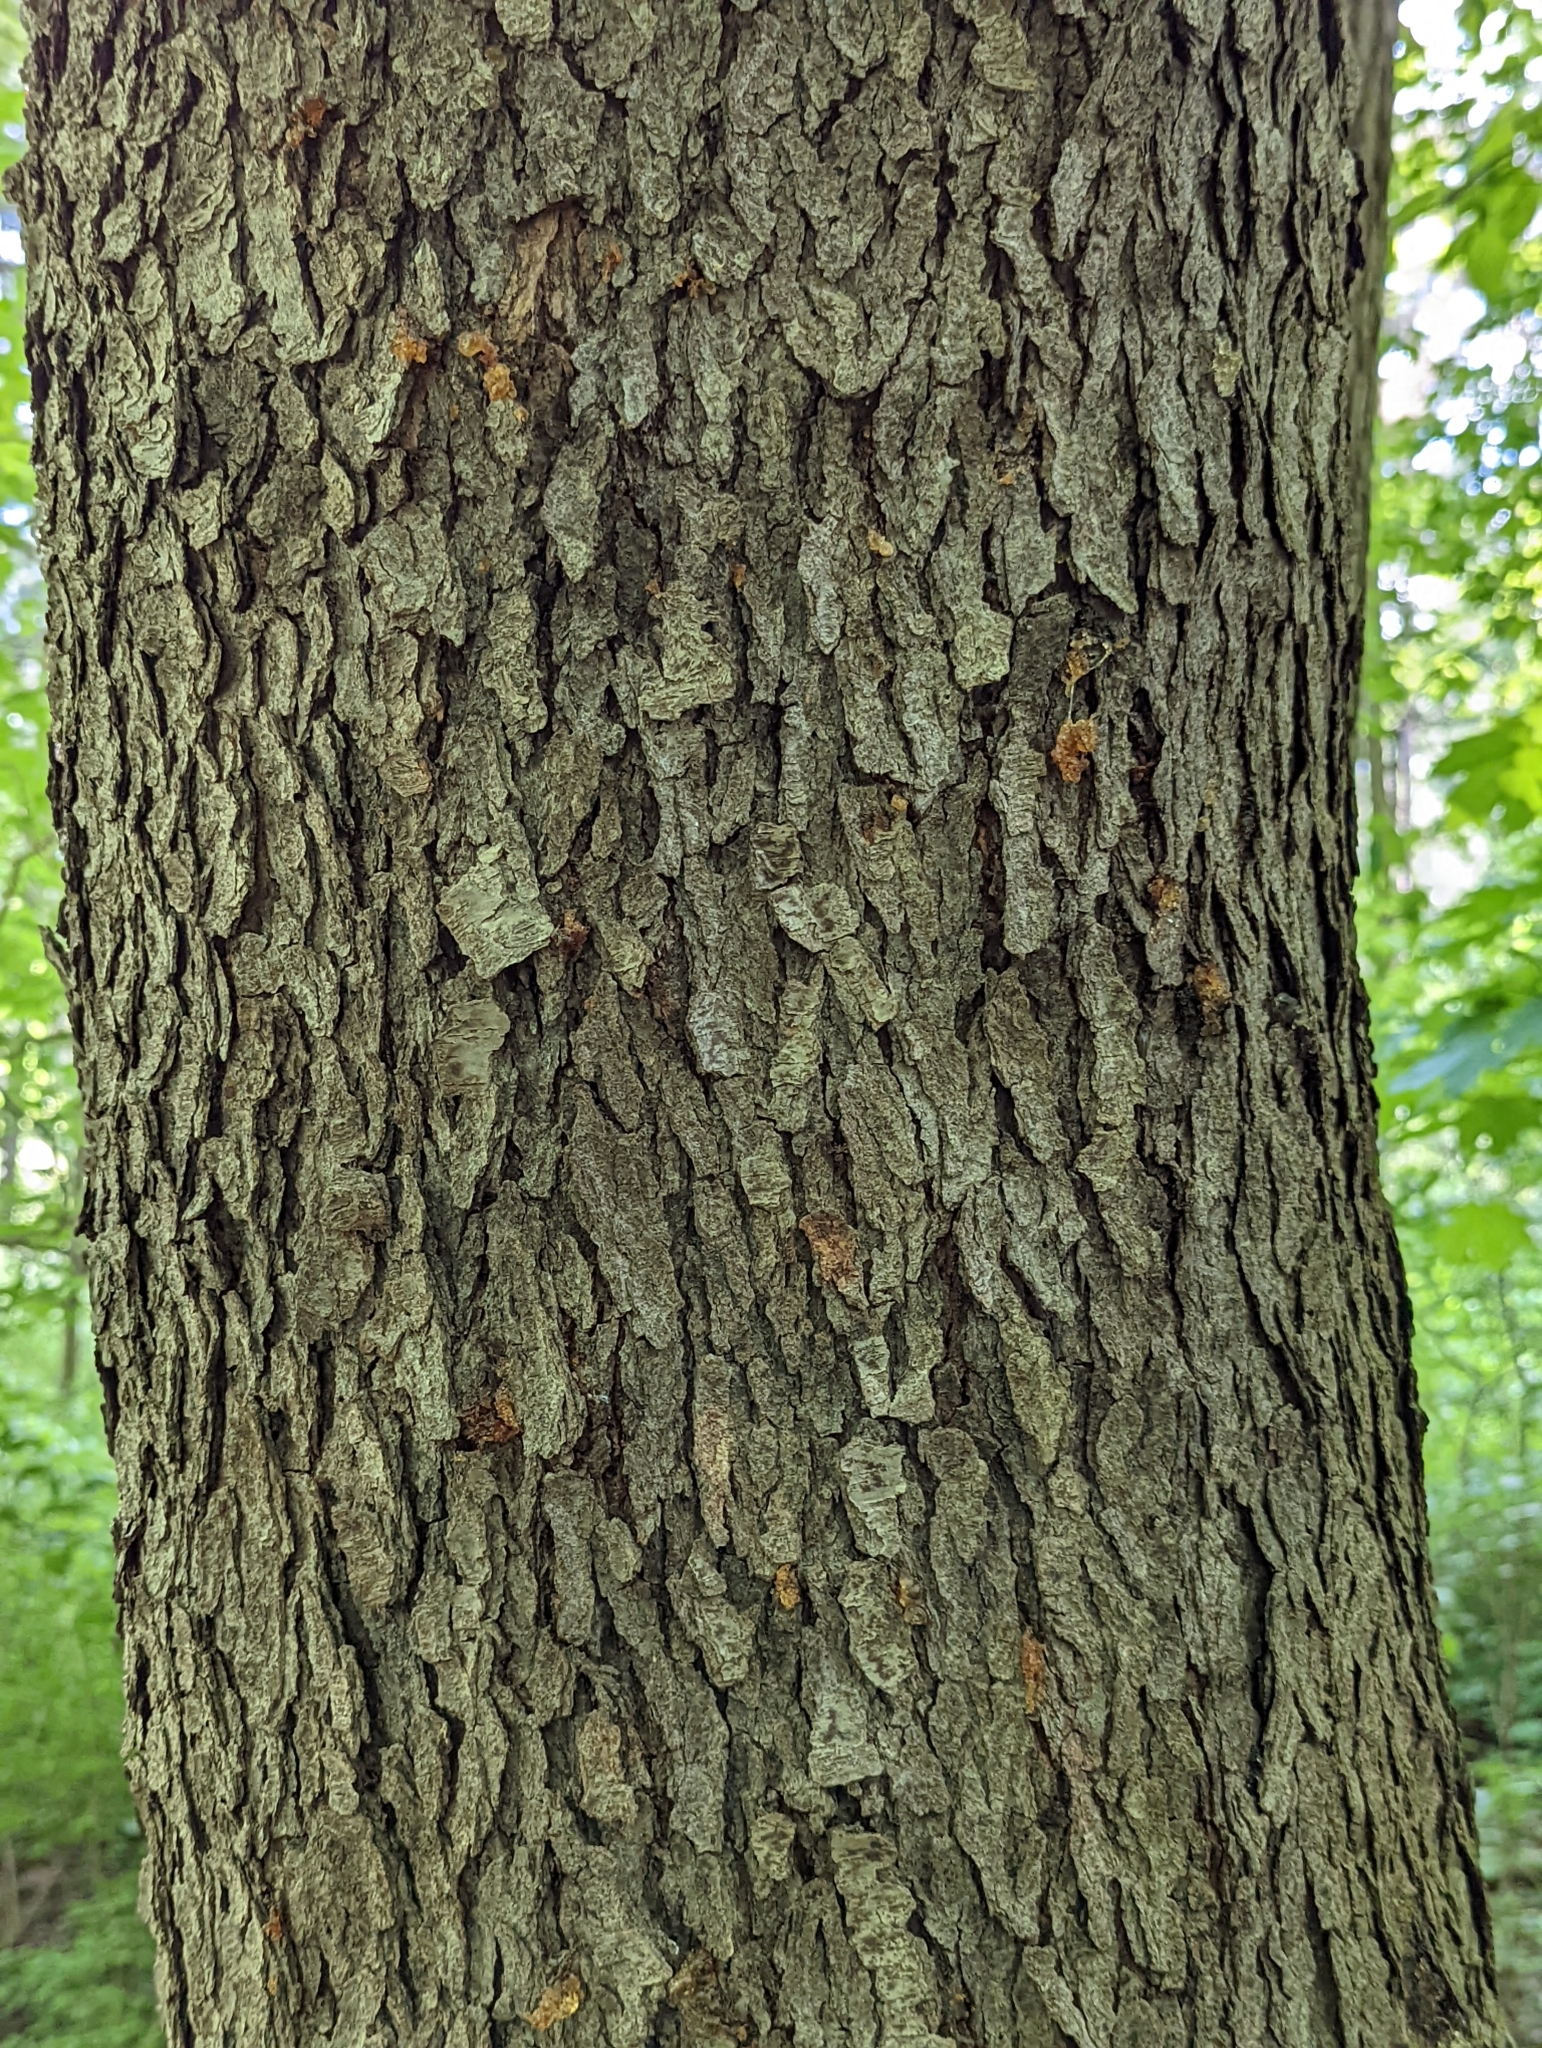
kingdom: Plantae
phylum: Tracheophyta
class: Magnoliopsida
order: Rosales
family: Rosaceae
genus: Prunus
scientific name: Prunus serotina
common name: Black cherry
